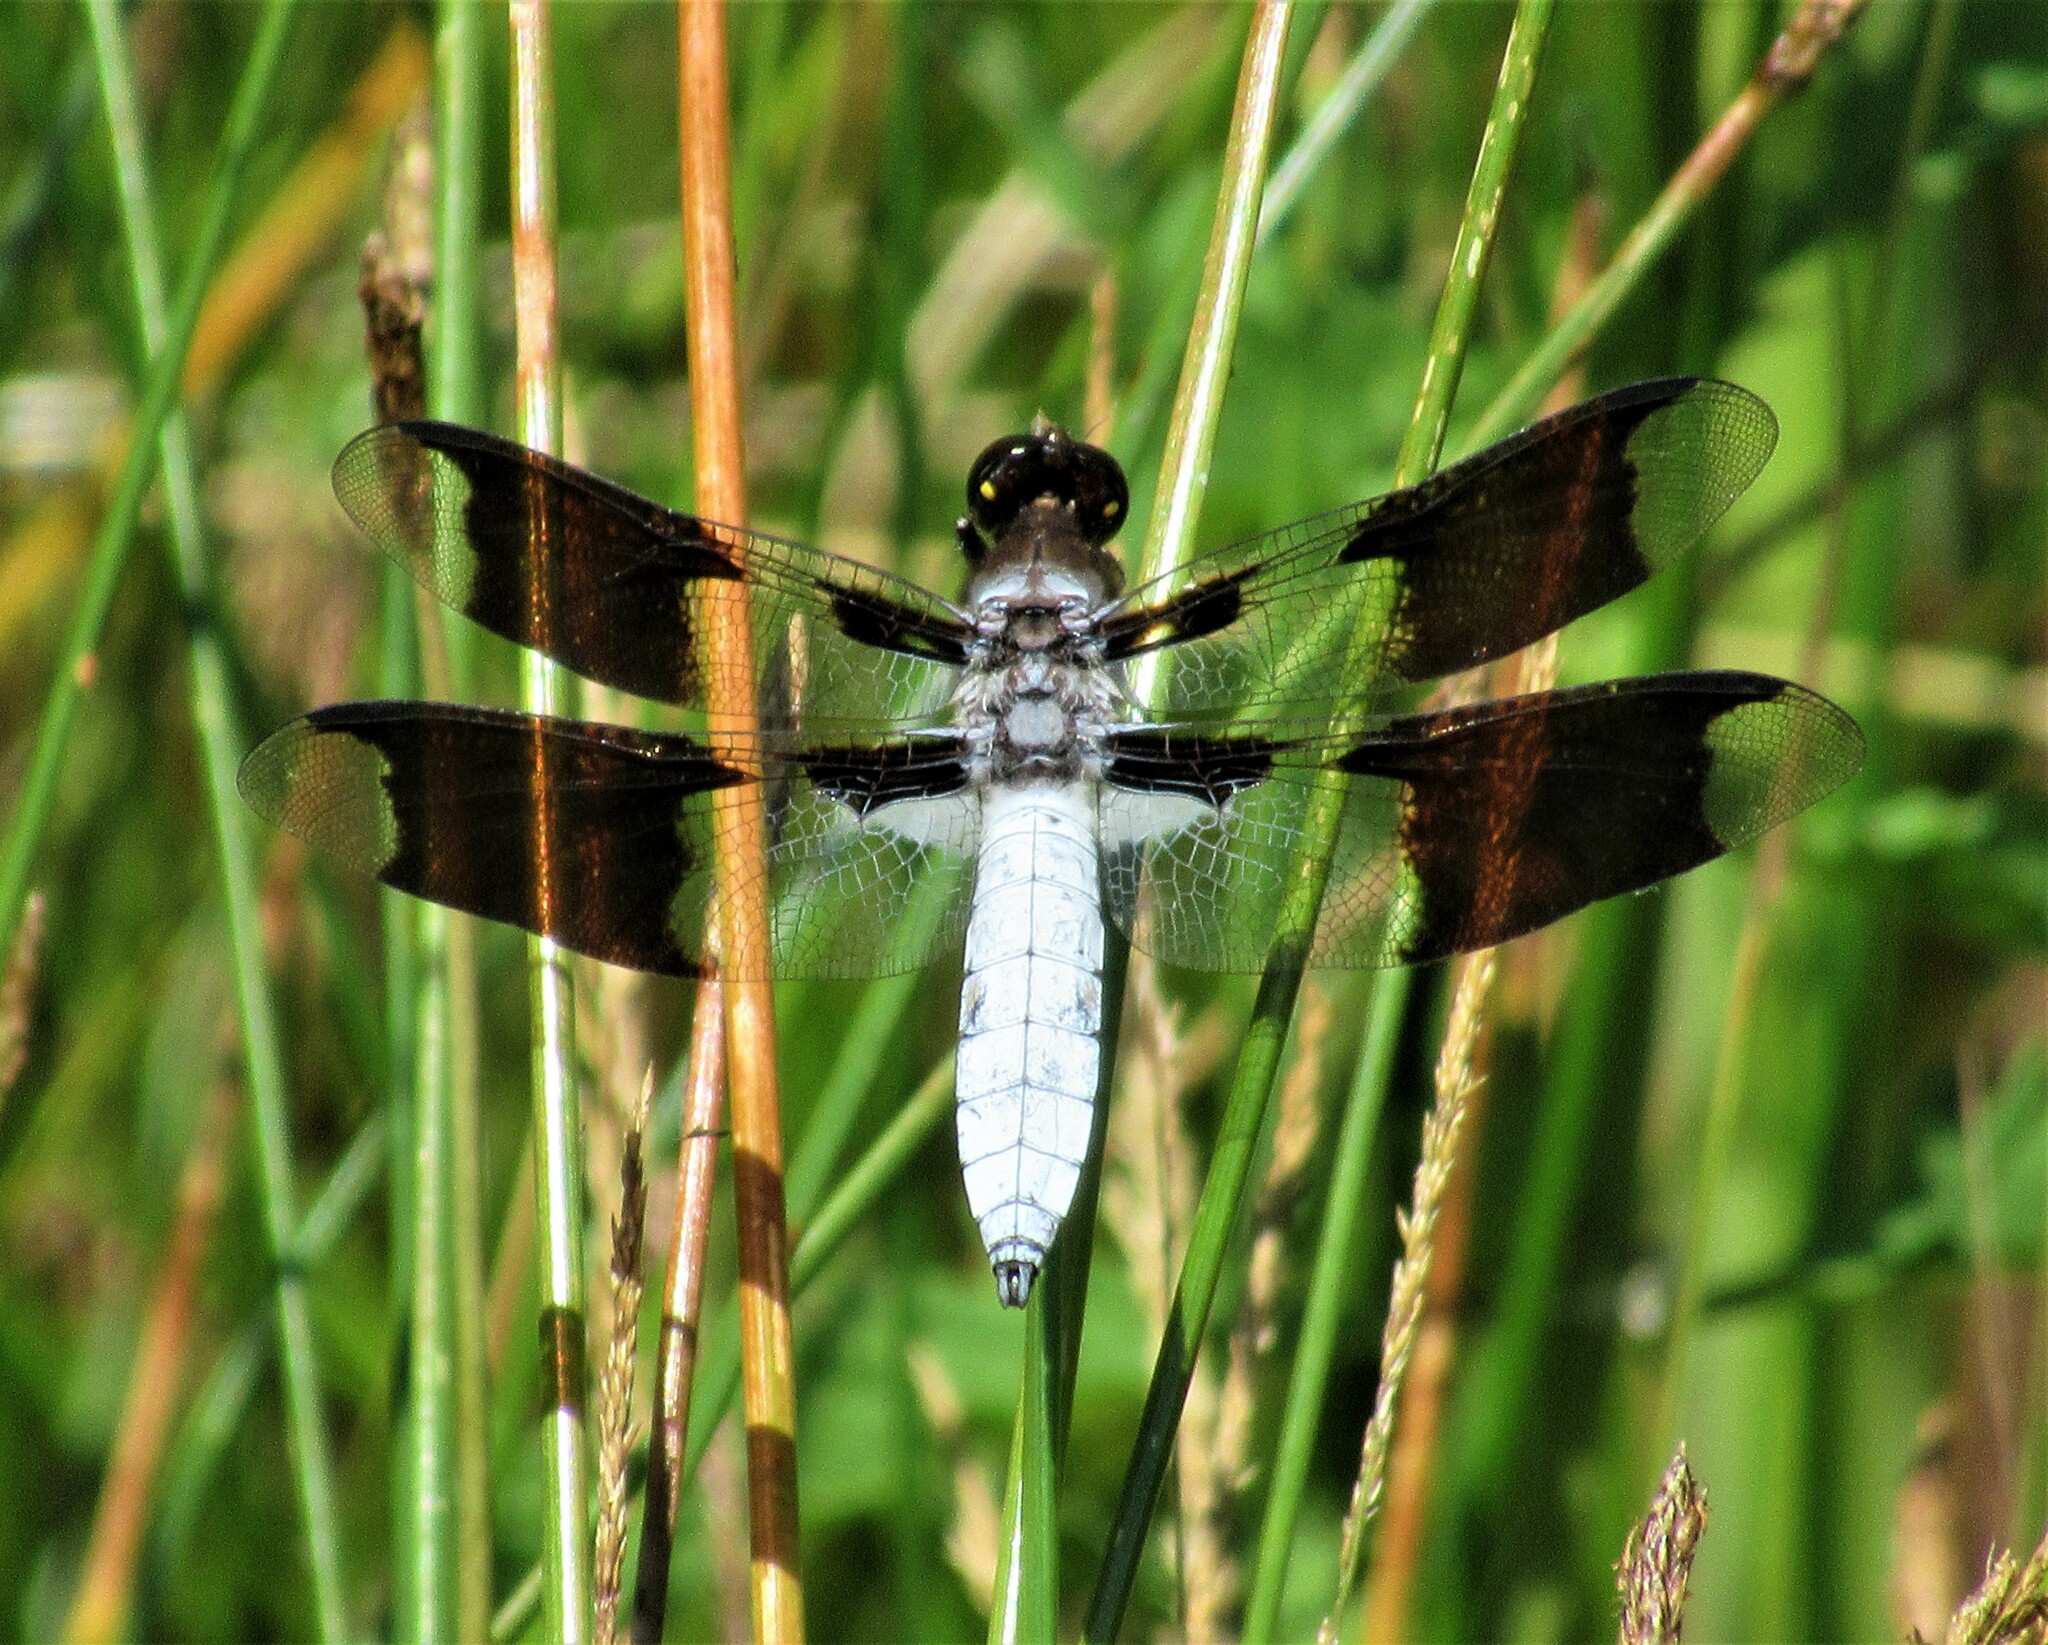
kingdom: Animalia
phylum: Arthropoda
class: Insecta
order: Odonata
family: Libellulidae
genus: Plathemis
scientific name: Plathemis lydia
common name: Common whitetail
